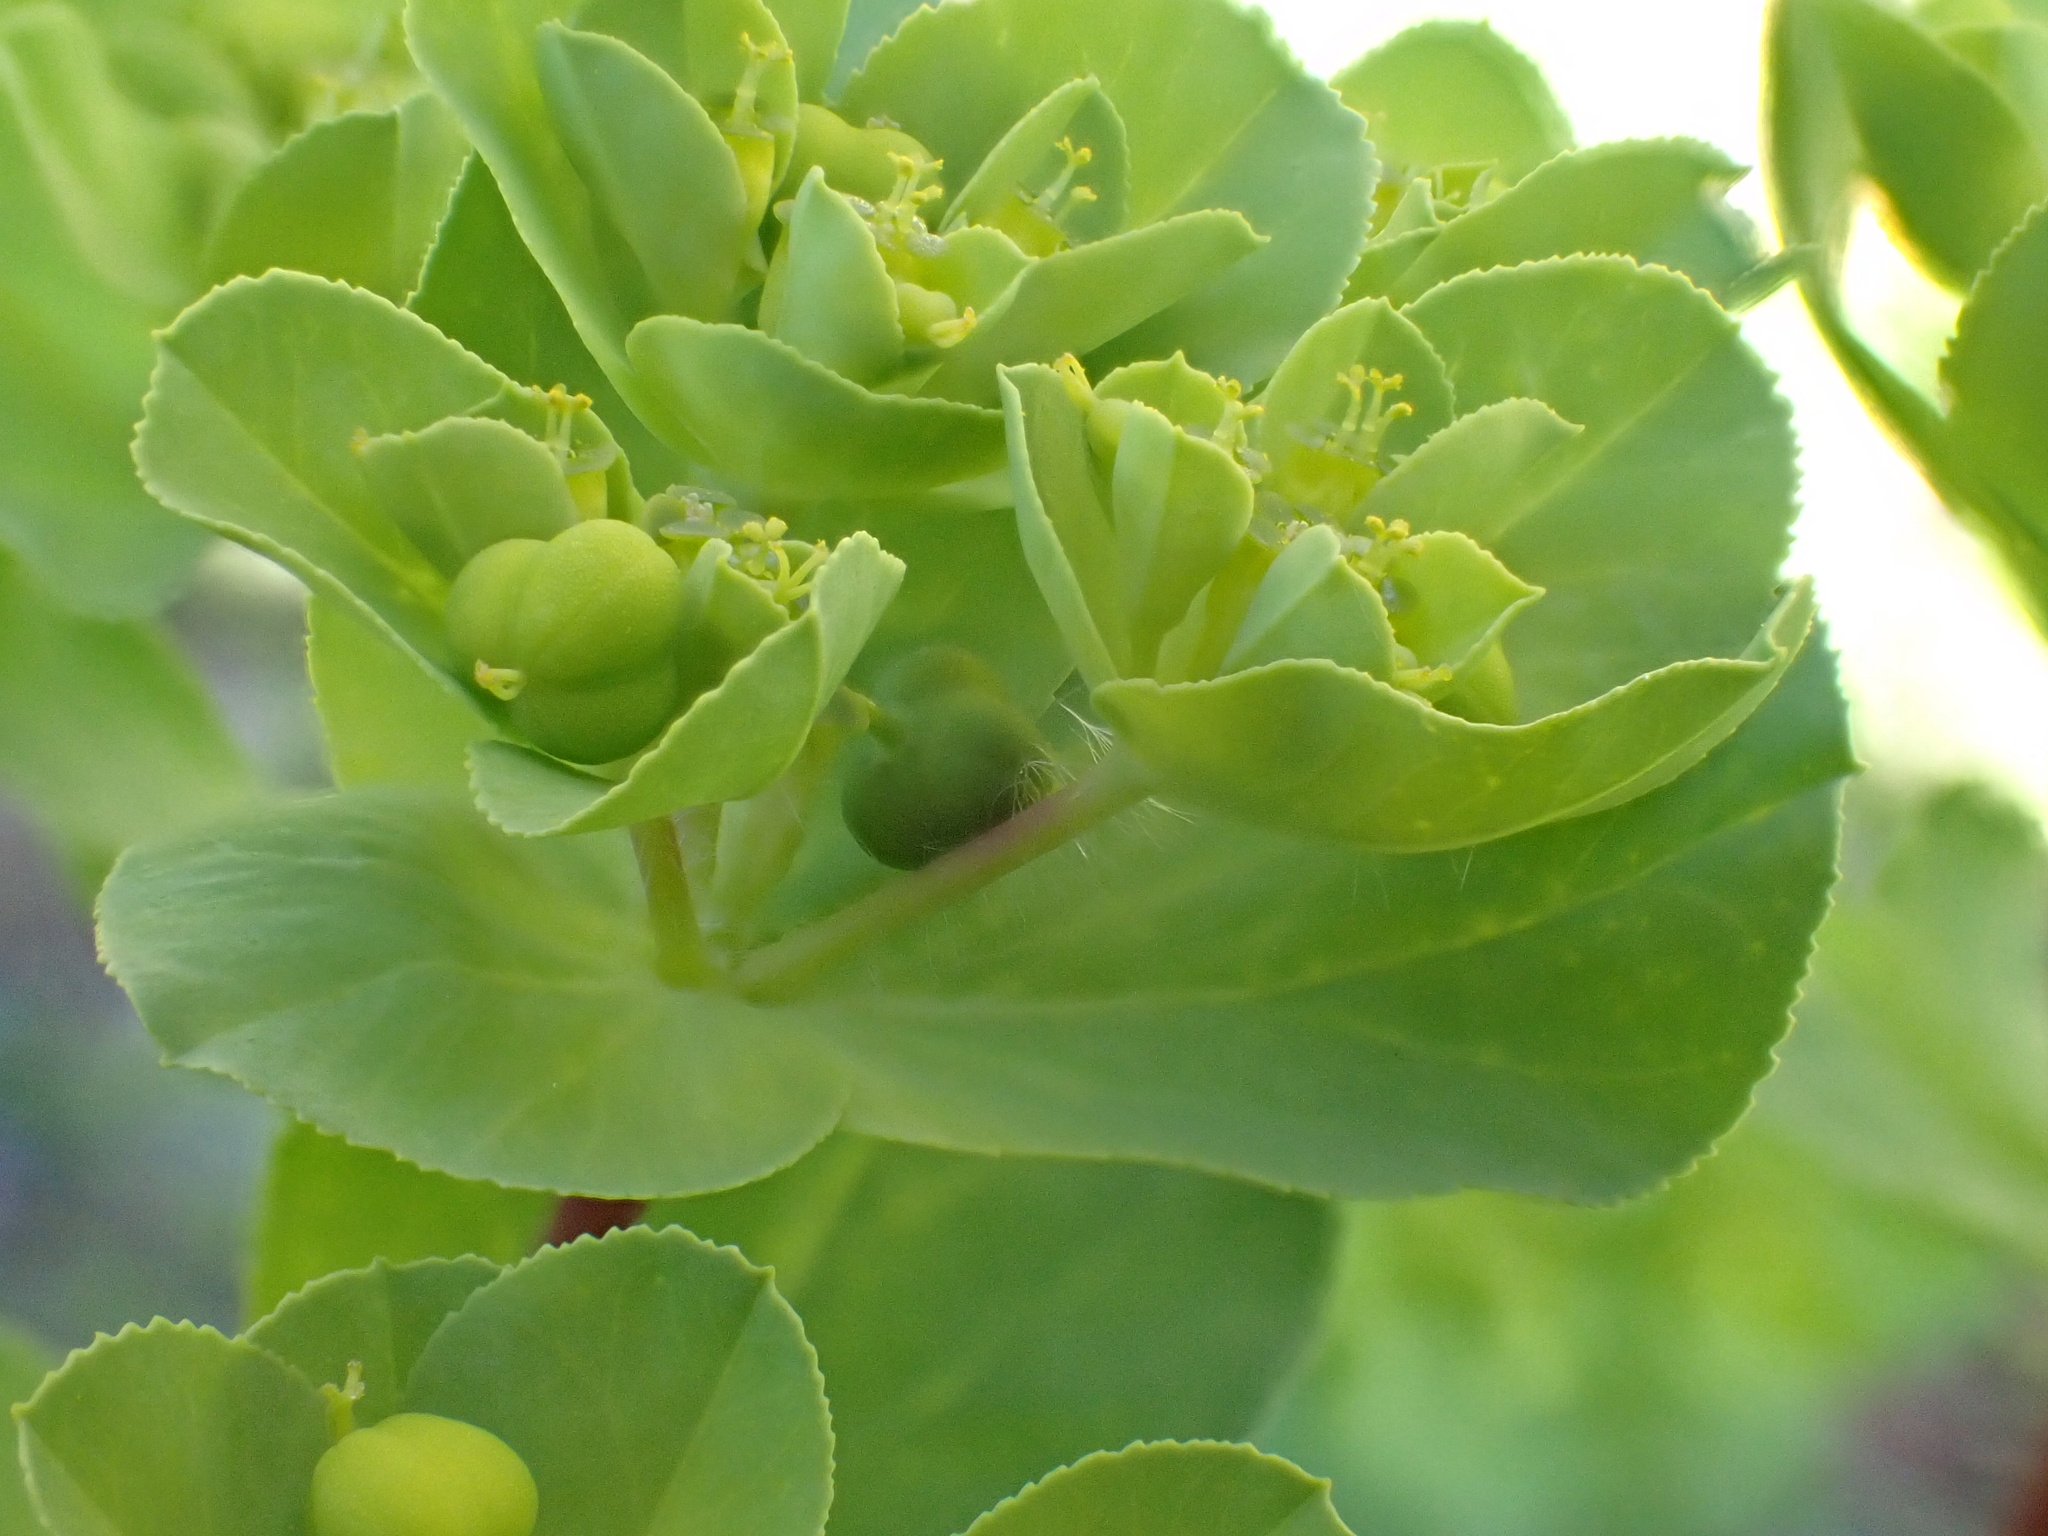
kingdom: Plantae
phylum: Tracheophyta
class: Magnoliopsida
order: Malpighiales
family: Euphorbiaceae
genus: Euphorbia
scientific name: Euphorbia helioscopia
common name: Sun spurge
